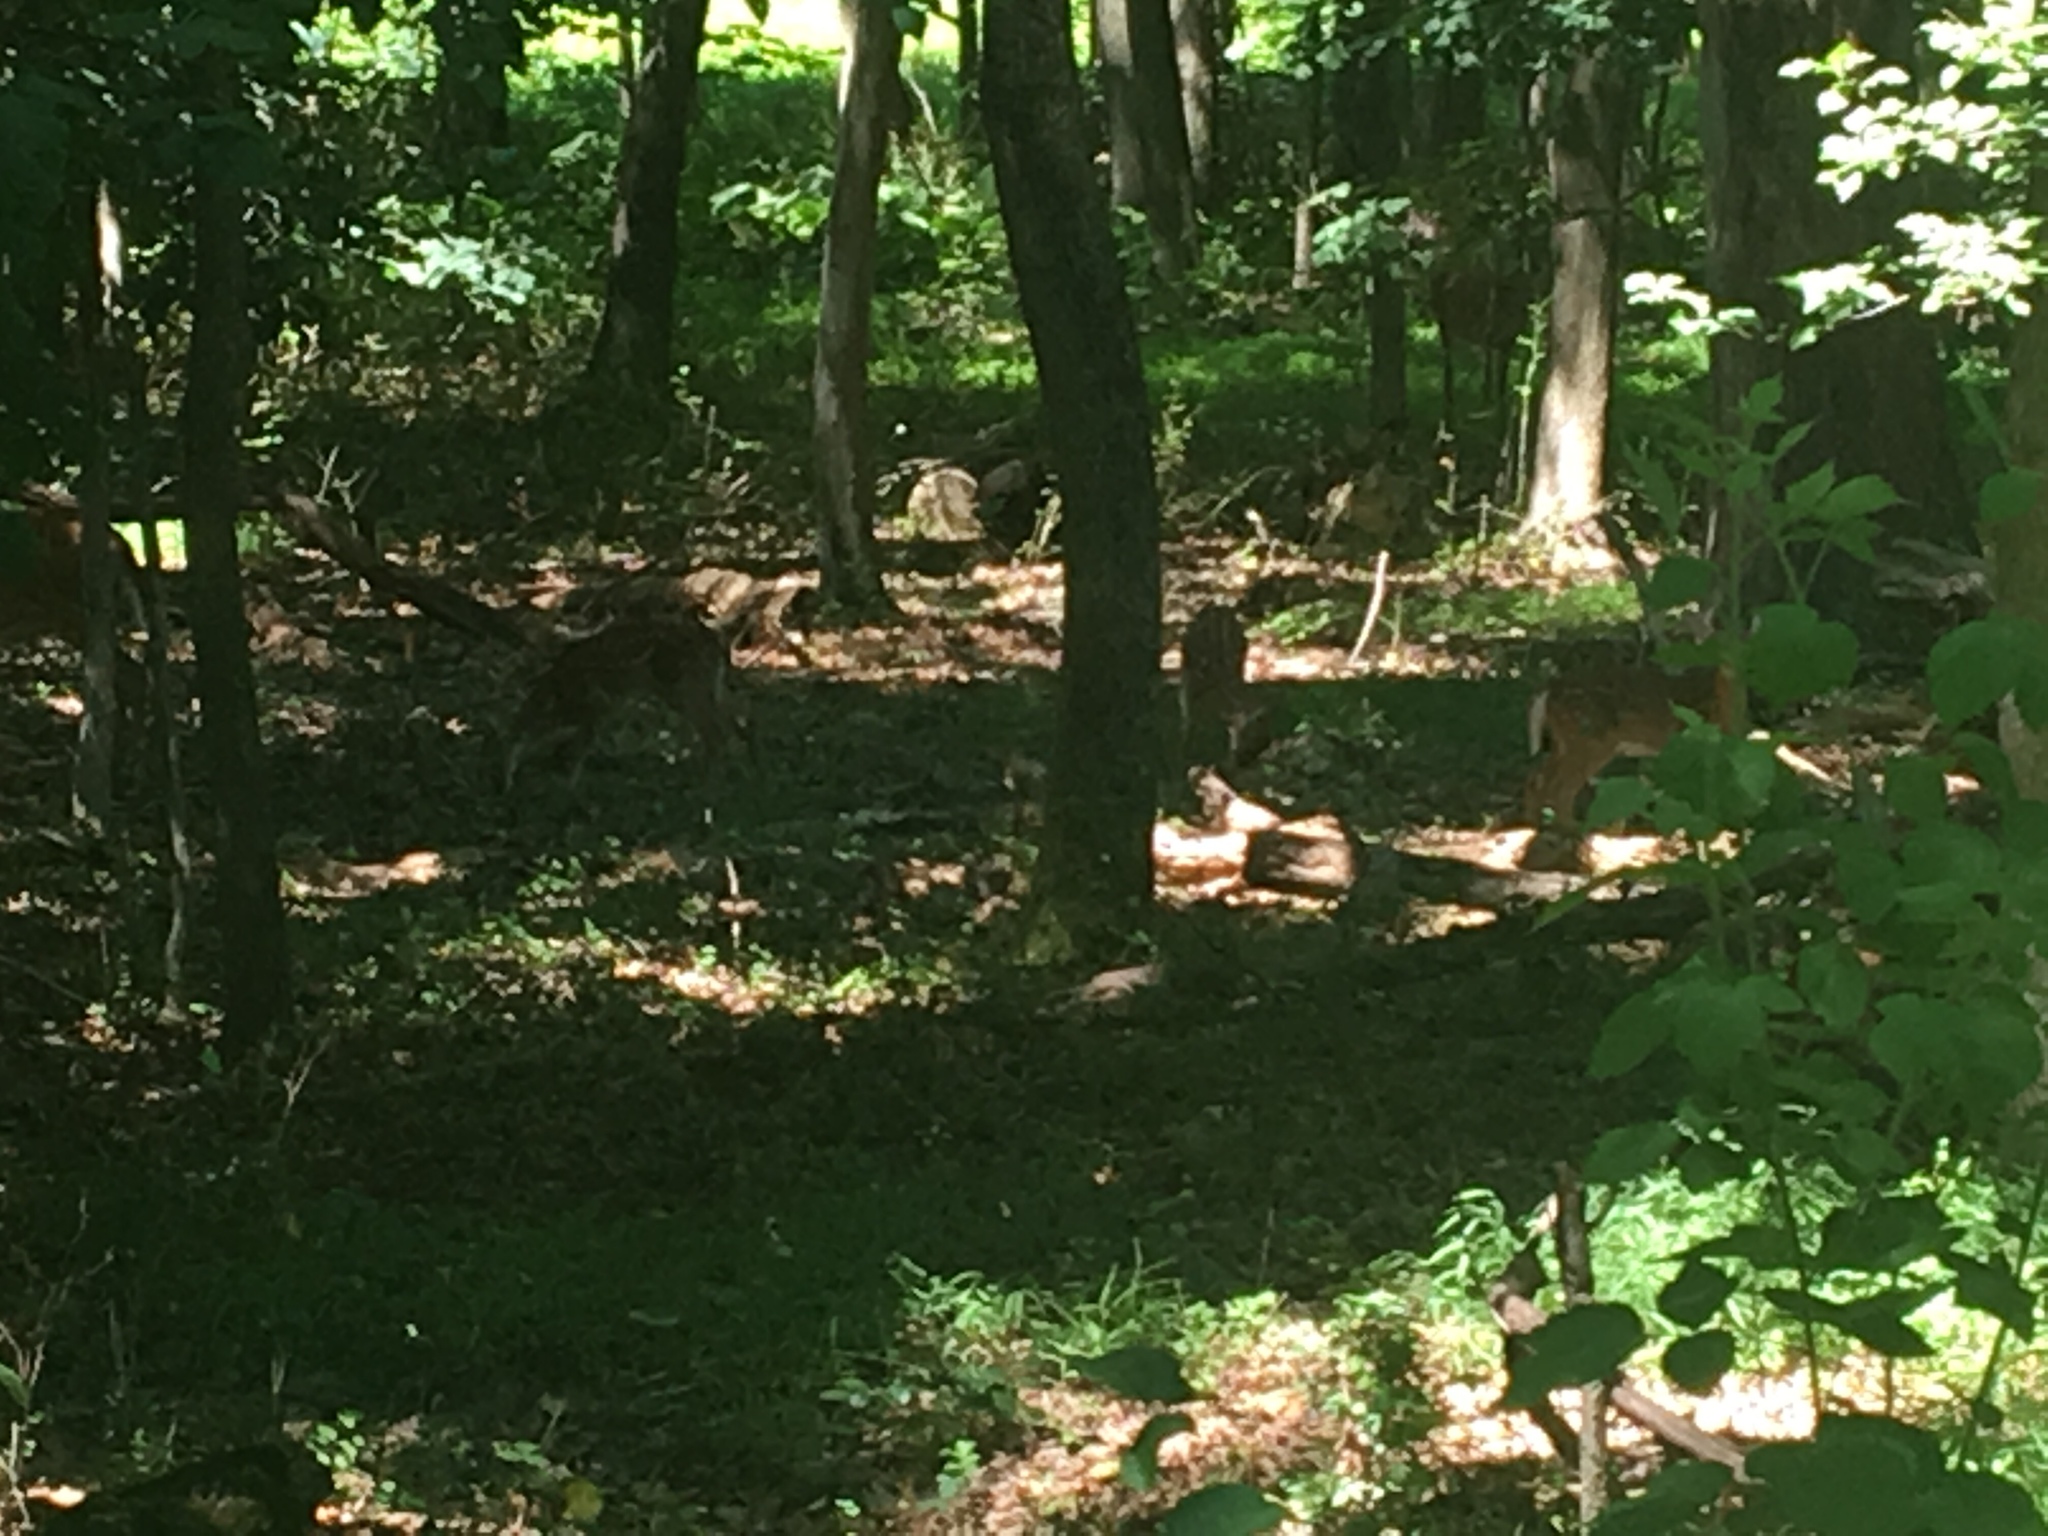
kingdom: Animalia
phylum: Chordata
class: Mammalia
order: Artiodactyla
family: Cervidae
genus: Odocoileus
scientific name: Odocoileus virginianus
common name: White-tailed deer
